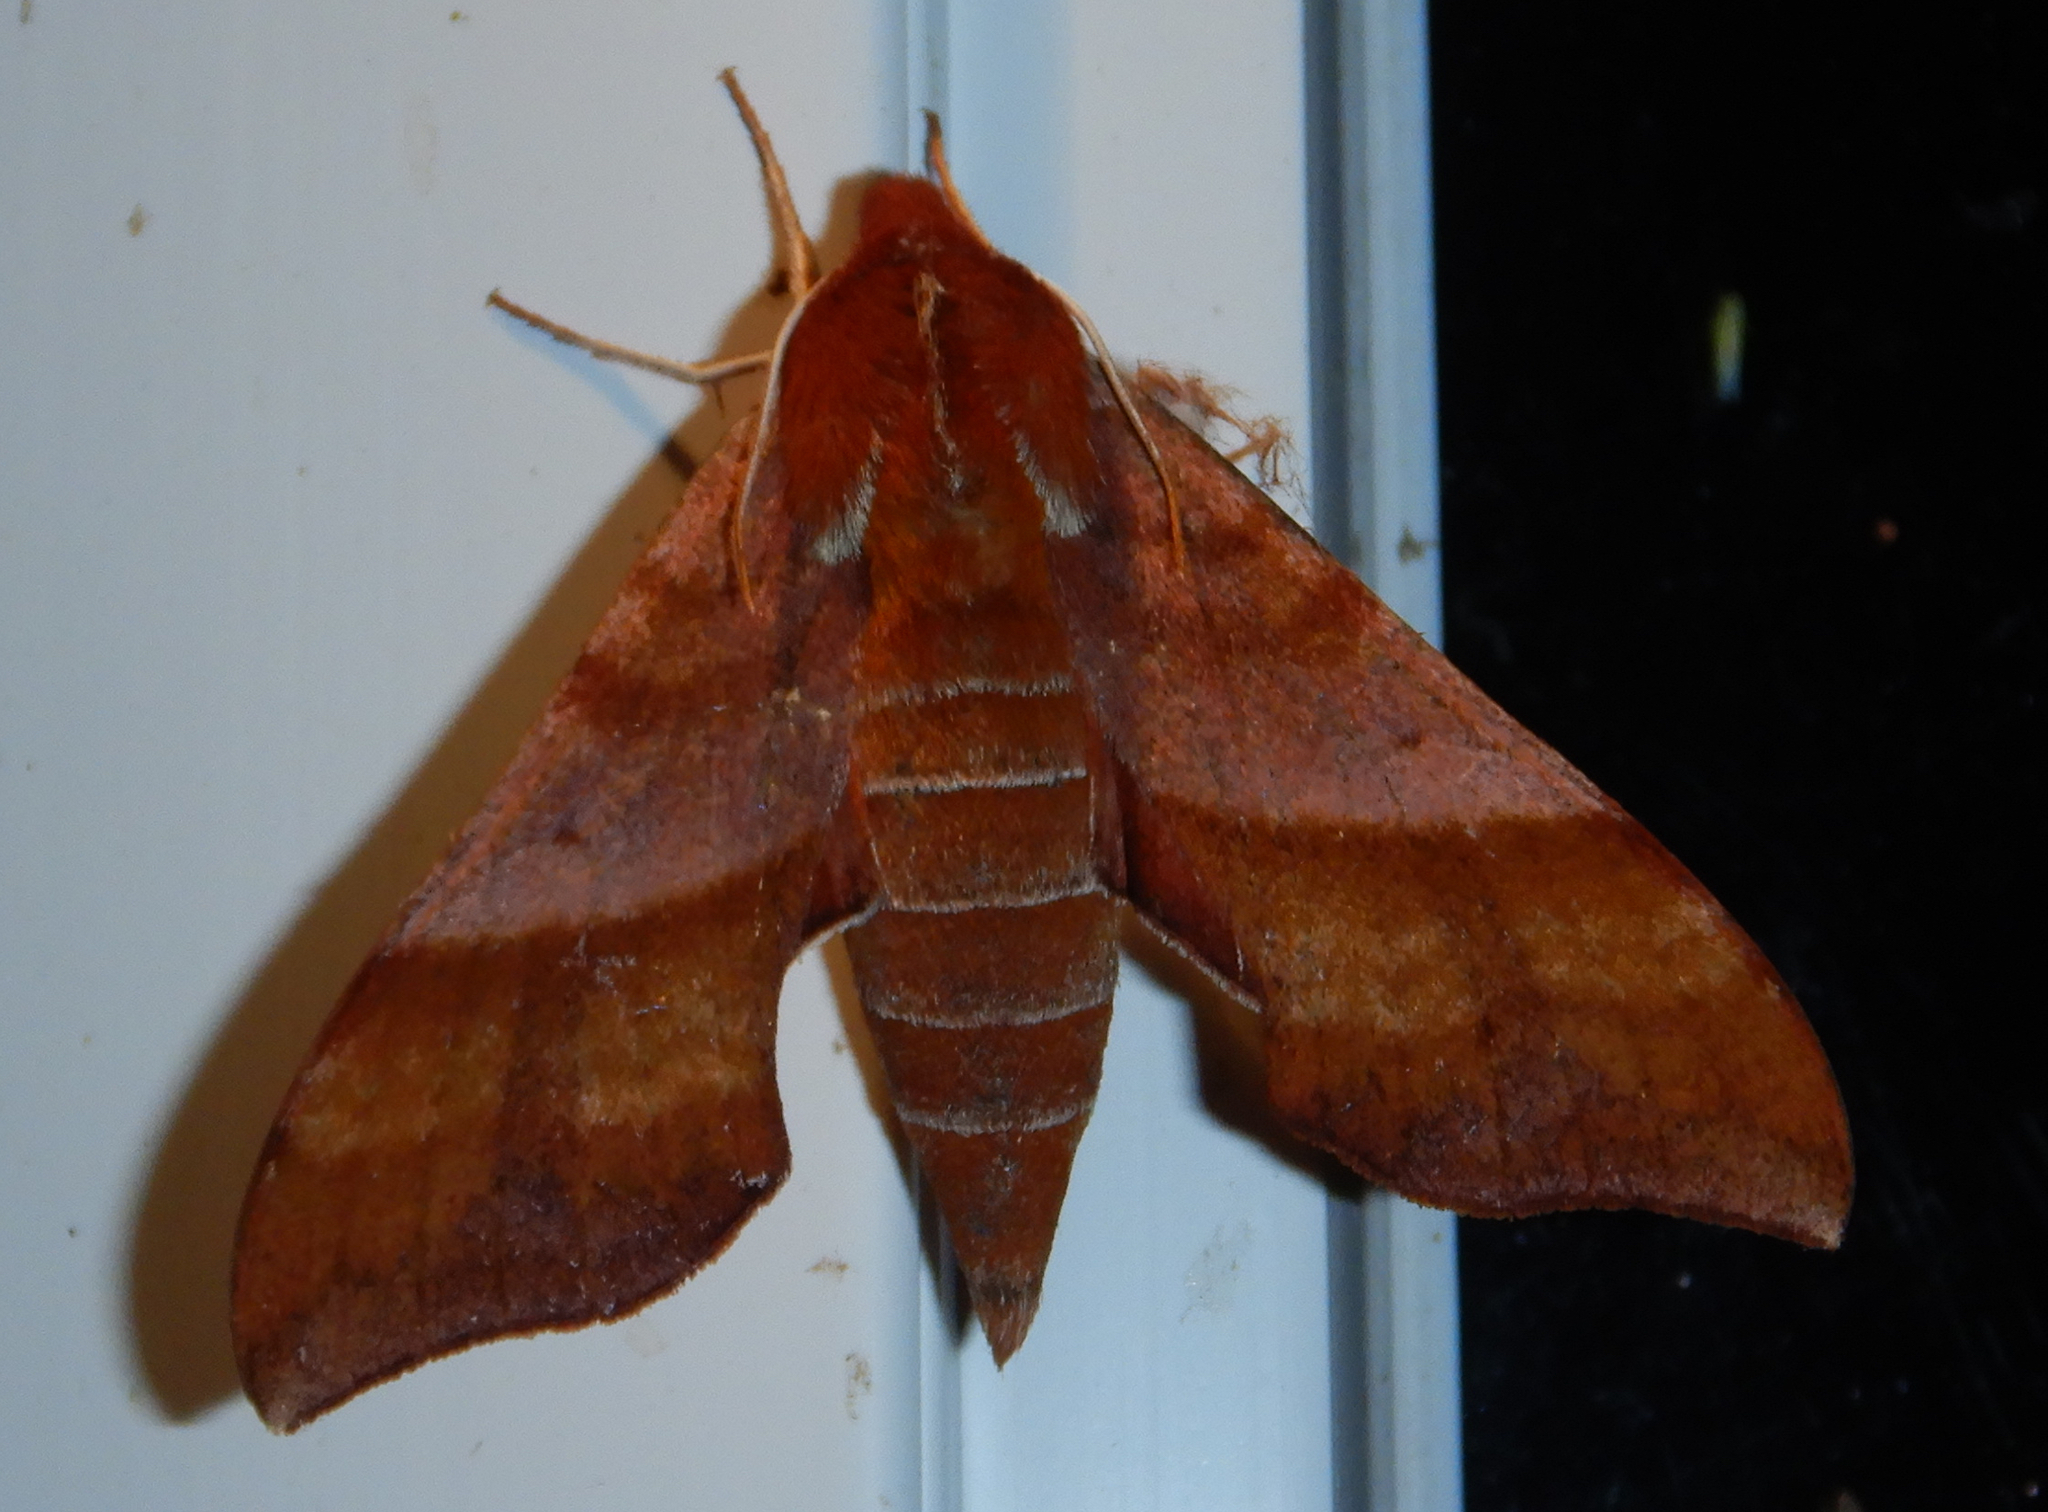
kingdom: Animalia
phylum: Arthropoda
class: Insecta
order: Lepidoptera
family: Sphingidae
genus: Darapsa
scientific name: Darapsa choerilus
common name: Azalea sphinx
